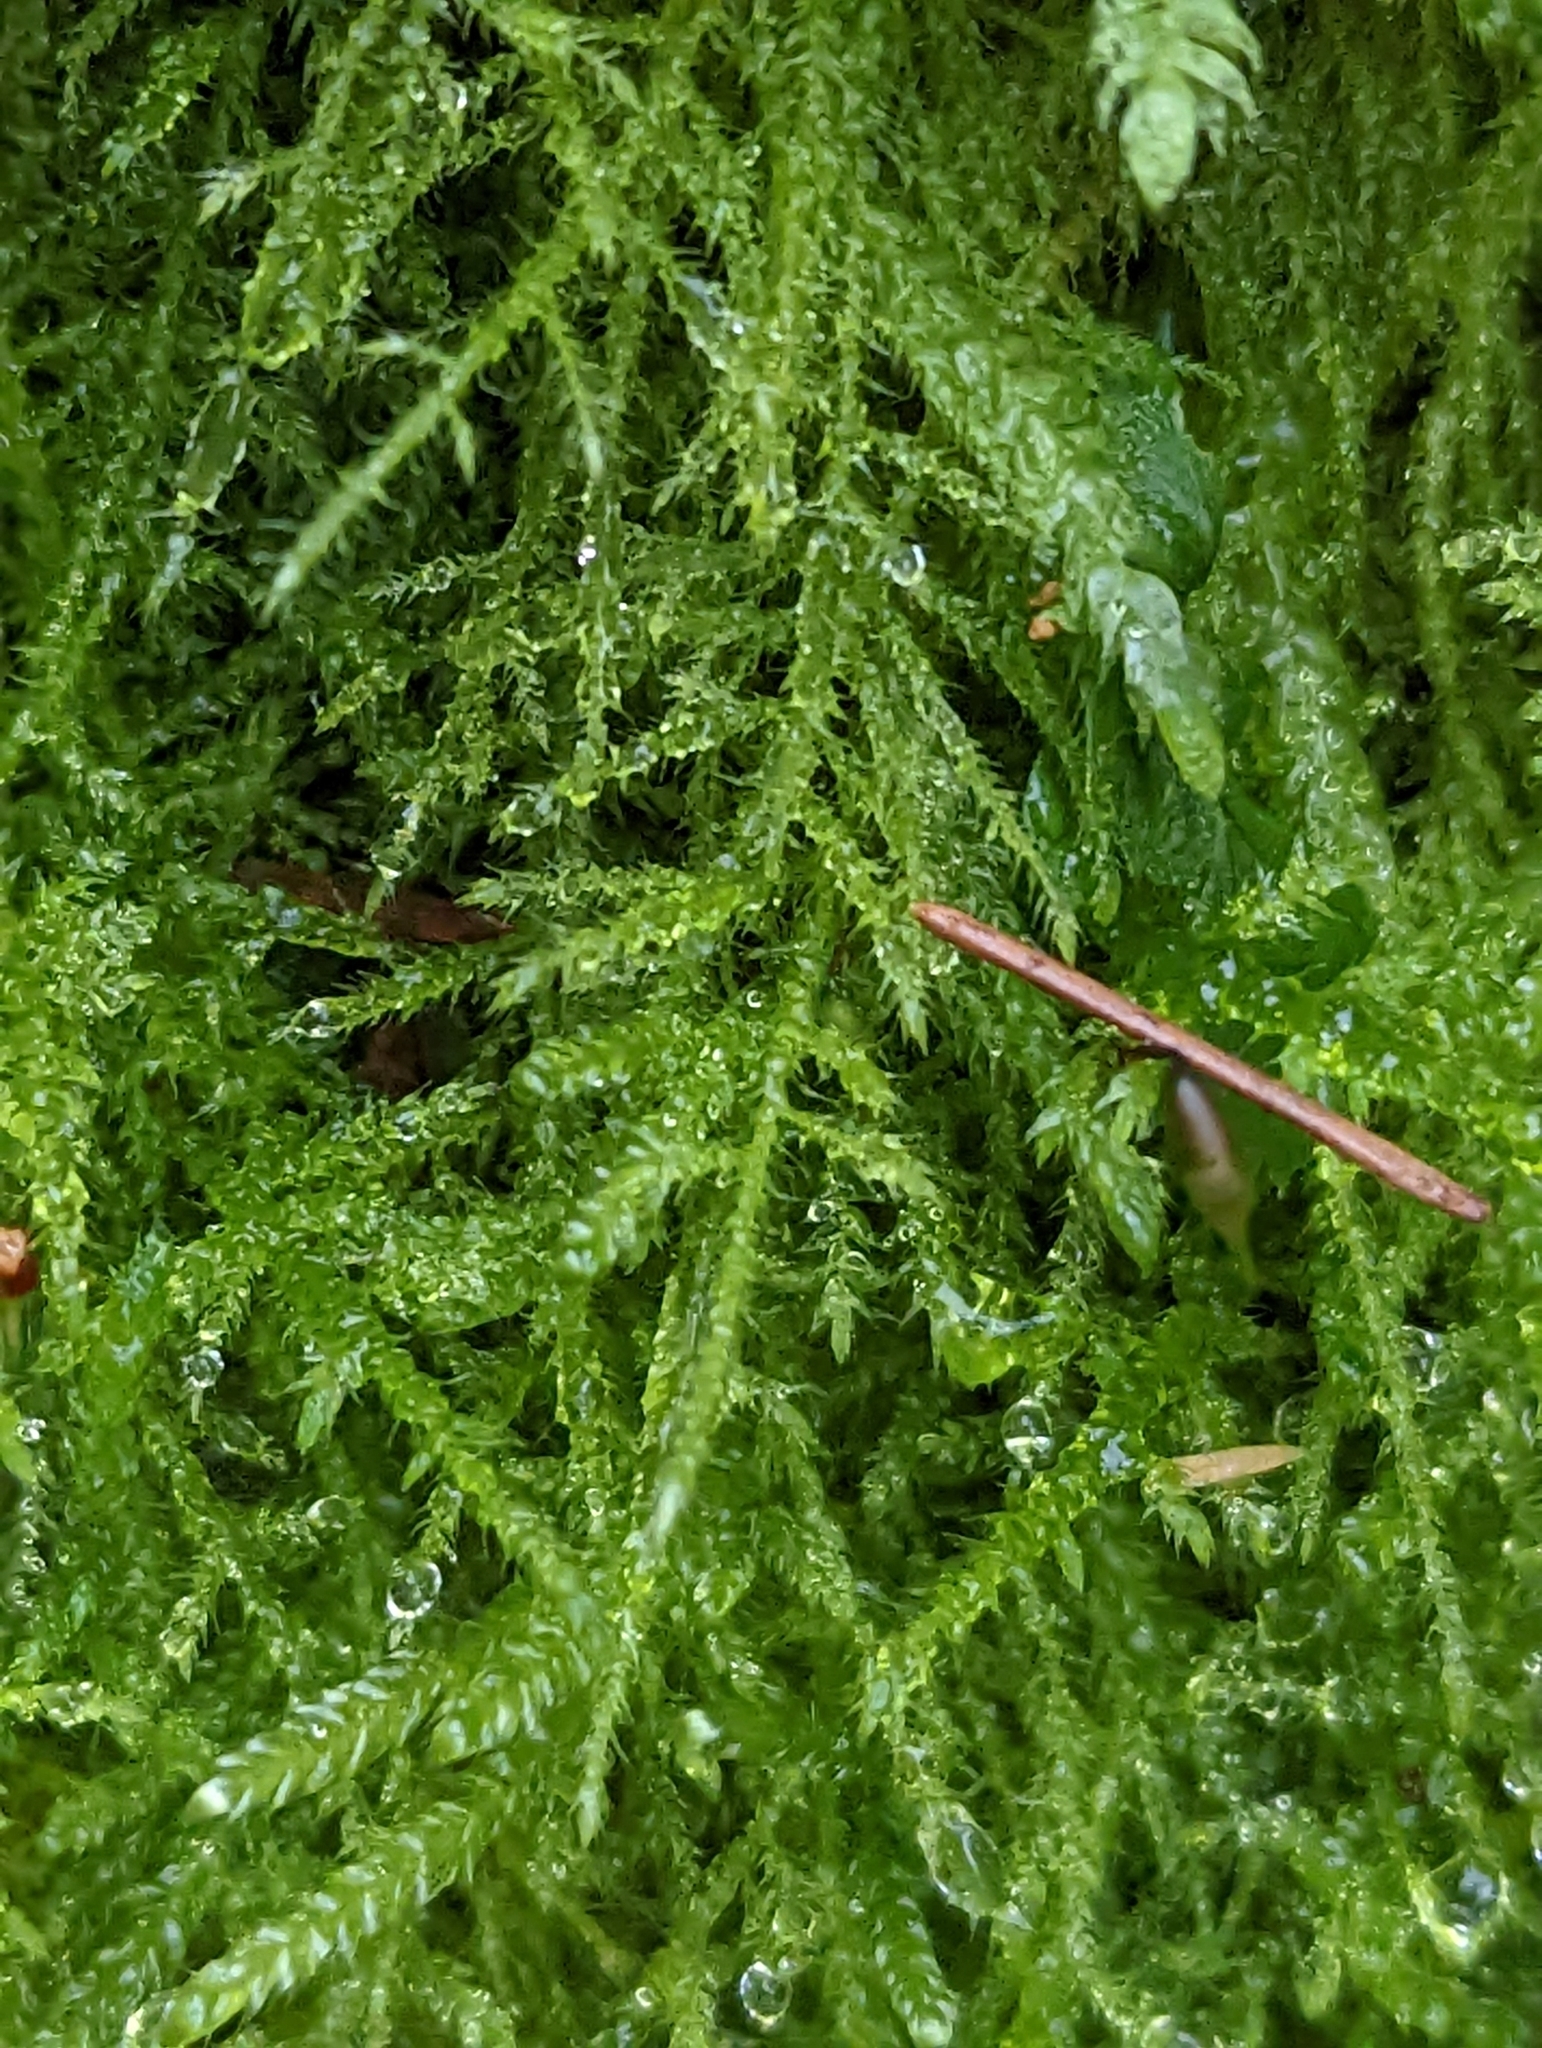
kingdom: Plantae
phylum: Bryophyta
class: Bryopsida
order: Hypnales
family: Brachytheciaceae
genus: Kindbergia
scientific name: Kindbergia praelonga
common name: Slender beaked moss
